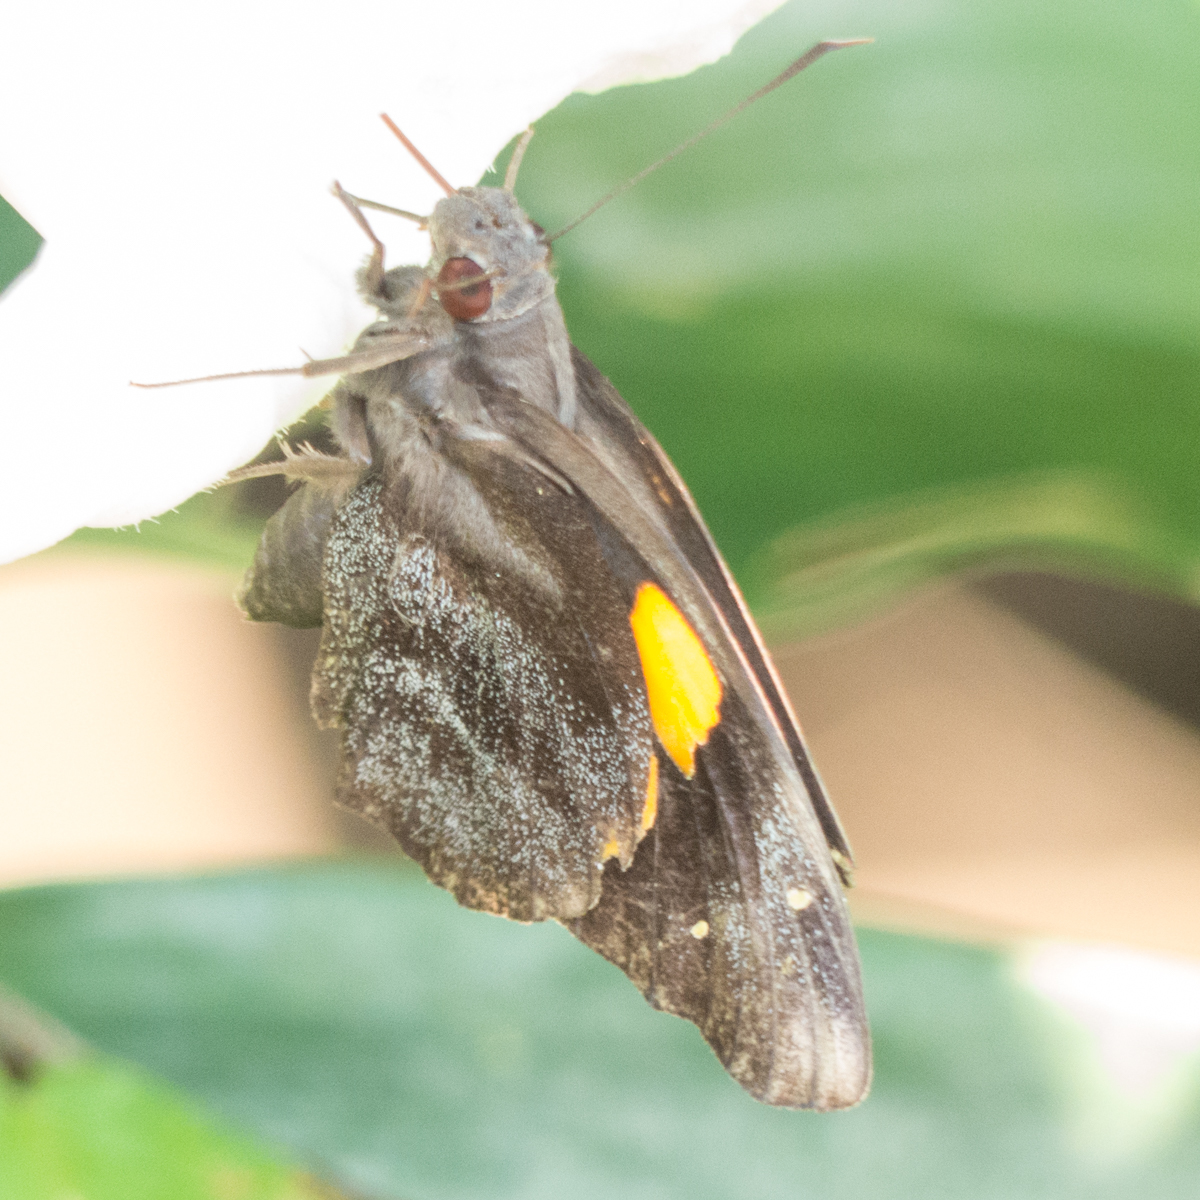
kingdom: Animalia
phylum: Arthropoda
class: Insecta
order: Lepidoptera
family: Hesperiidae
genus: Gangara
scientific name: Gangara thyrsis
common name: Giant redeye
